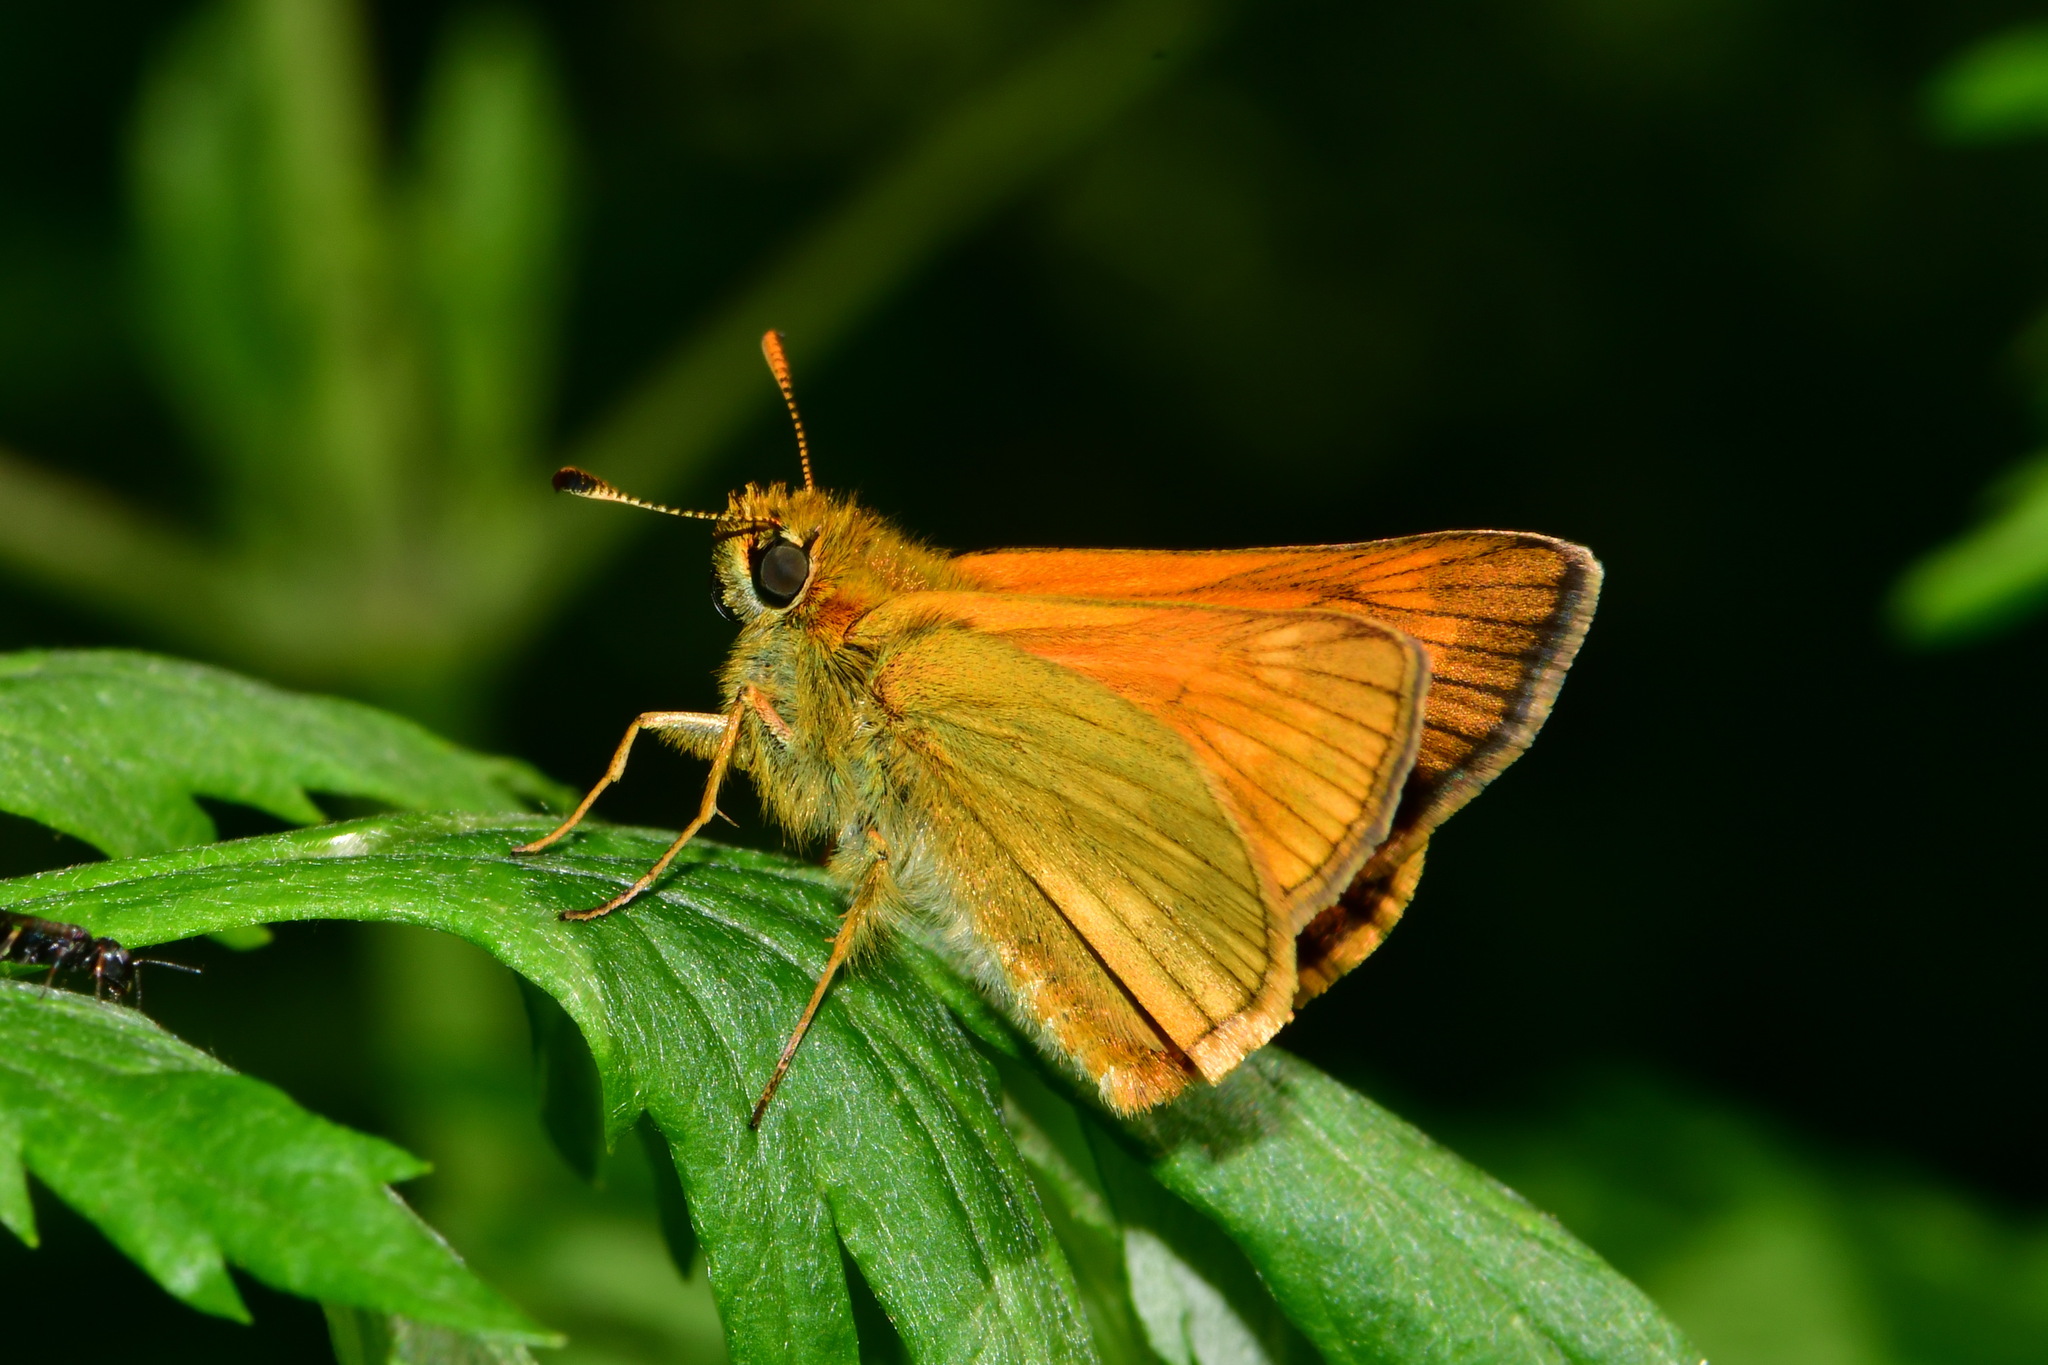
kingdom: Animalia
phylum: Arthropoda
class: Insecta
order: Lepidoptera
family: Hesperiidae
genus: Ochlodes
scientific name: Ochlodes venata
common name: Large skipper
